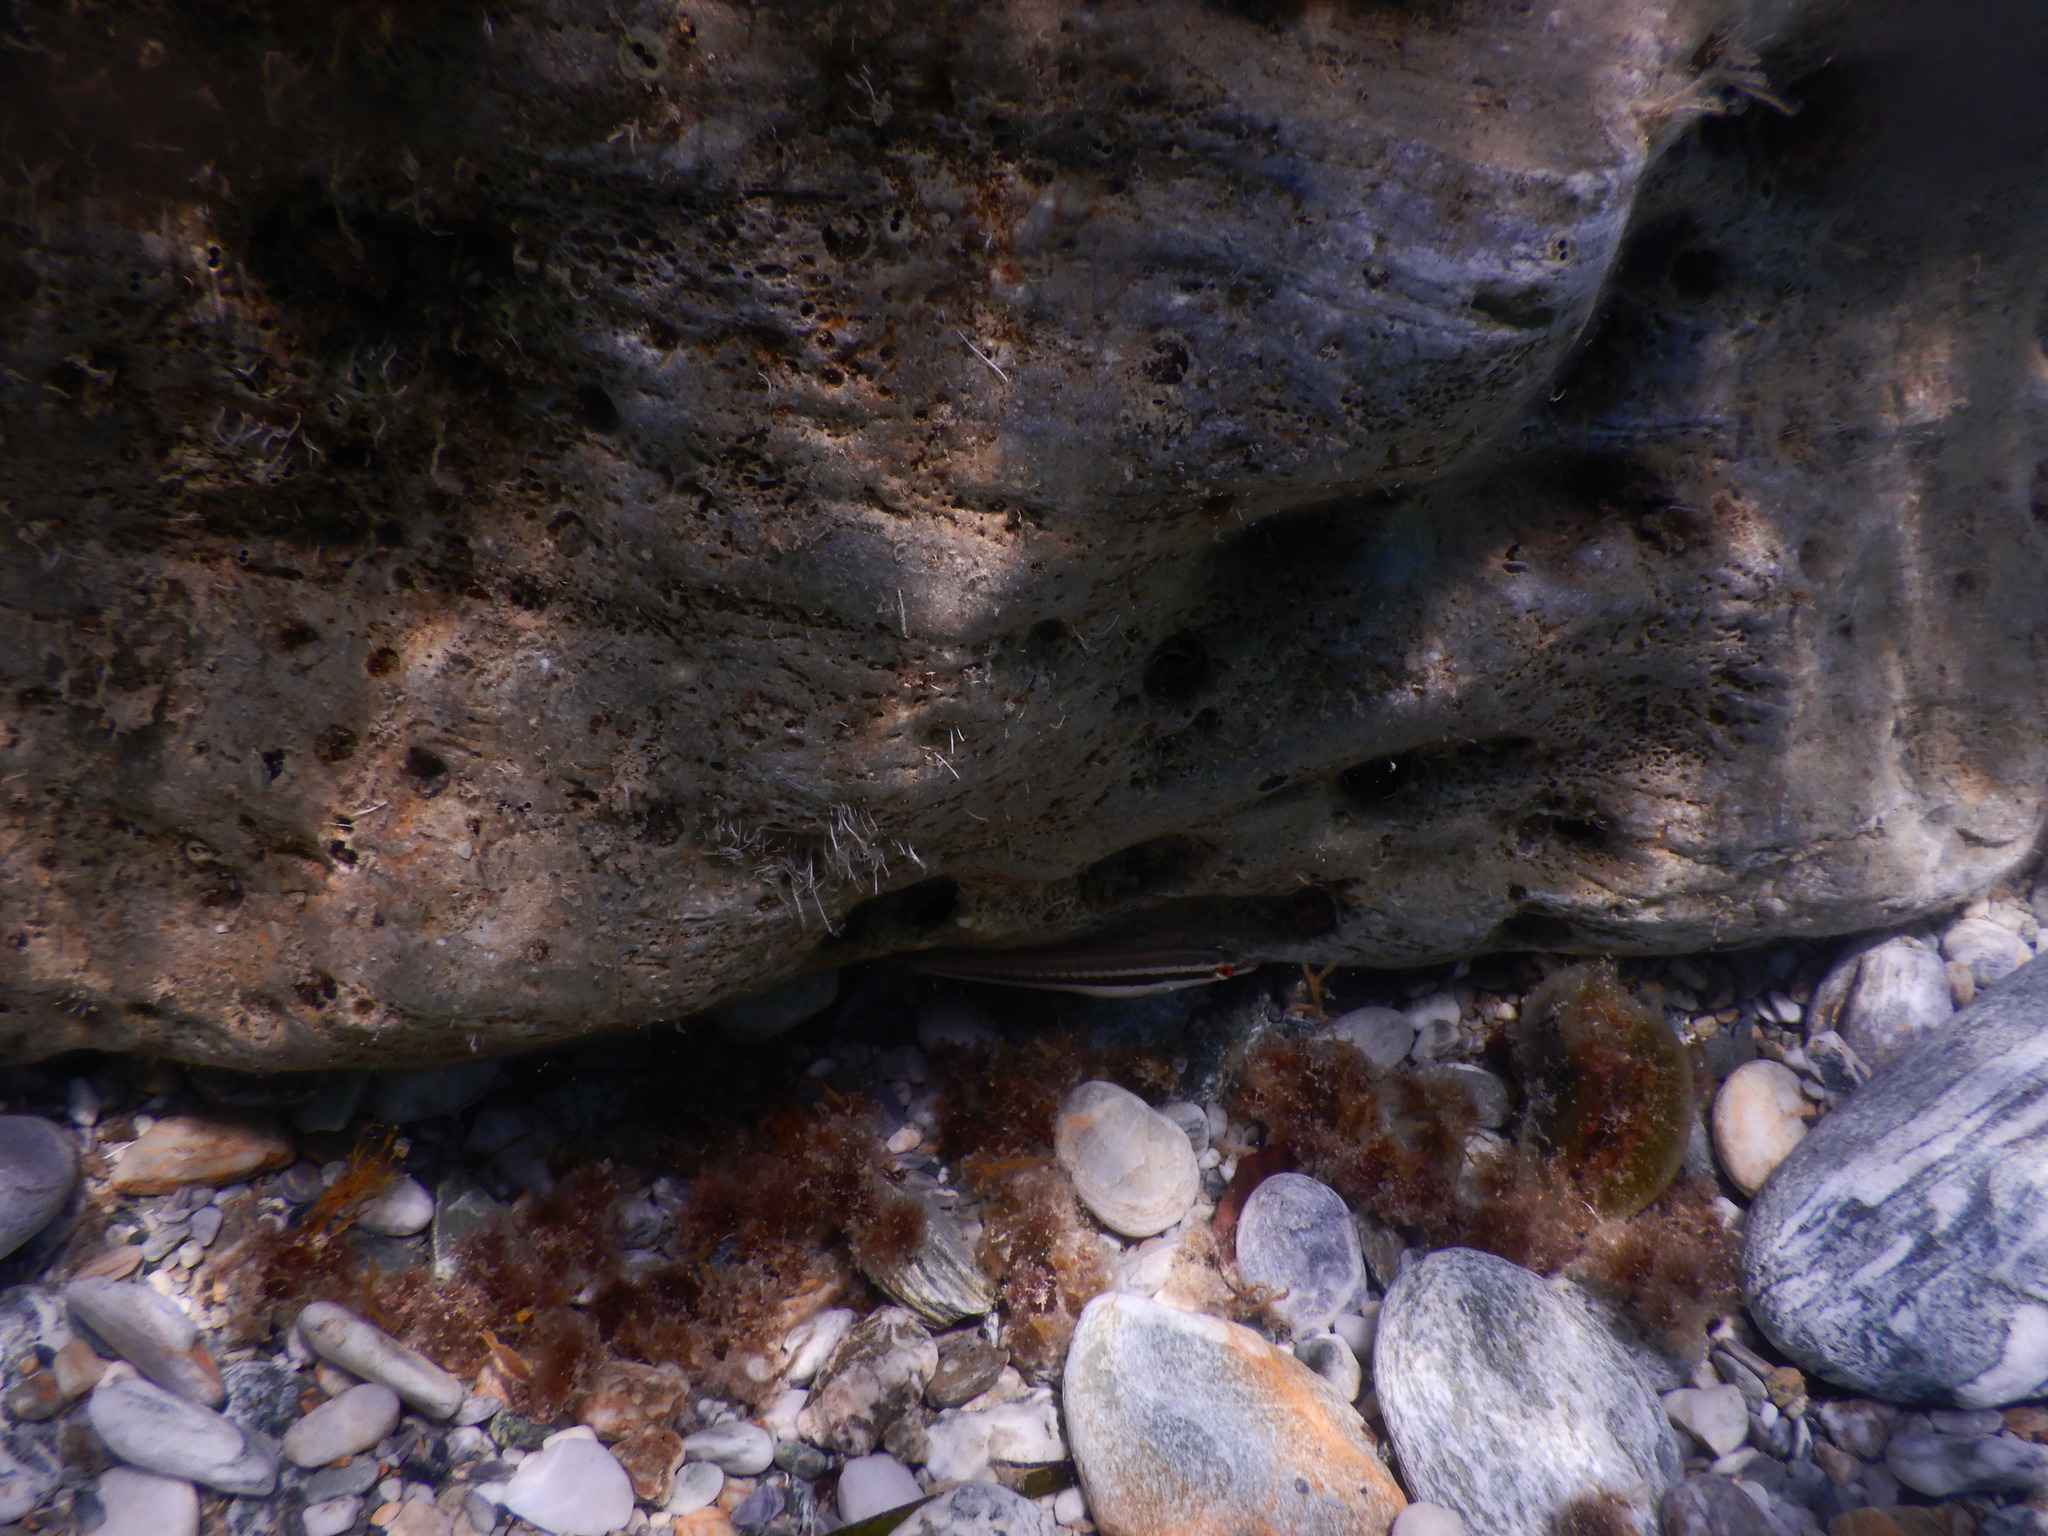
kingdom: Animalia
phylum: Chordata
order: Perciformes
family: Labridae
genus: Coris
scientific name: Coris julis
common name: Rainbow wrasse
